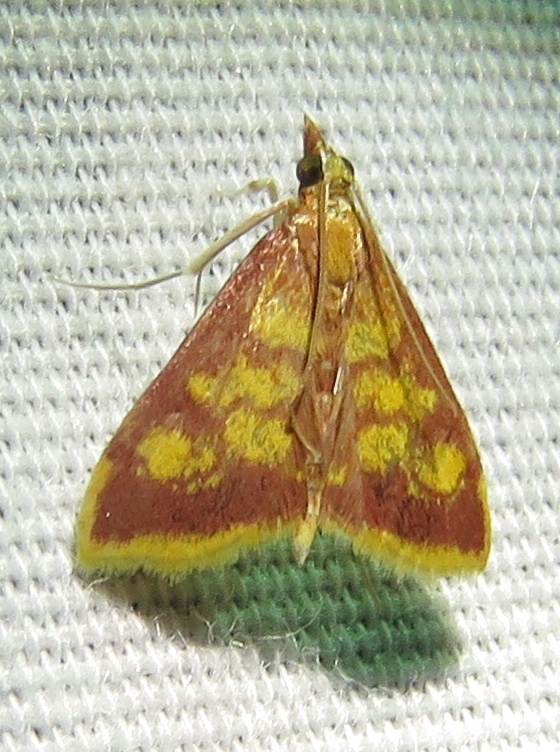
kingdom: Animalia
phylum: Arthropoda
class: Insecta
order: Lepidoptera
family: Crambidae
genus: Pyrausta
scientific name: Pyrausta acrionalis
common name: Mint-loving pyrausta moth
